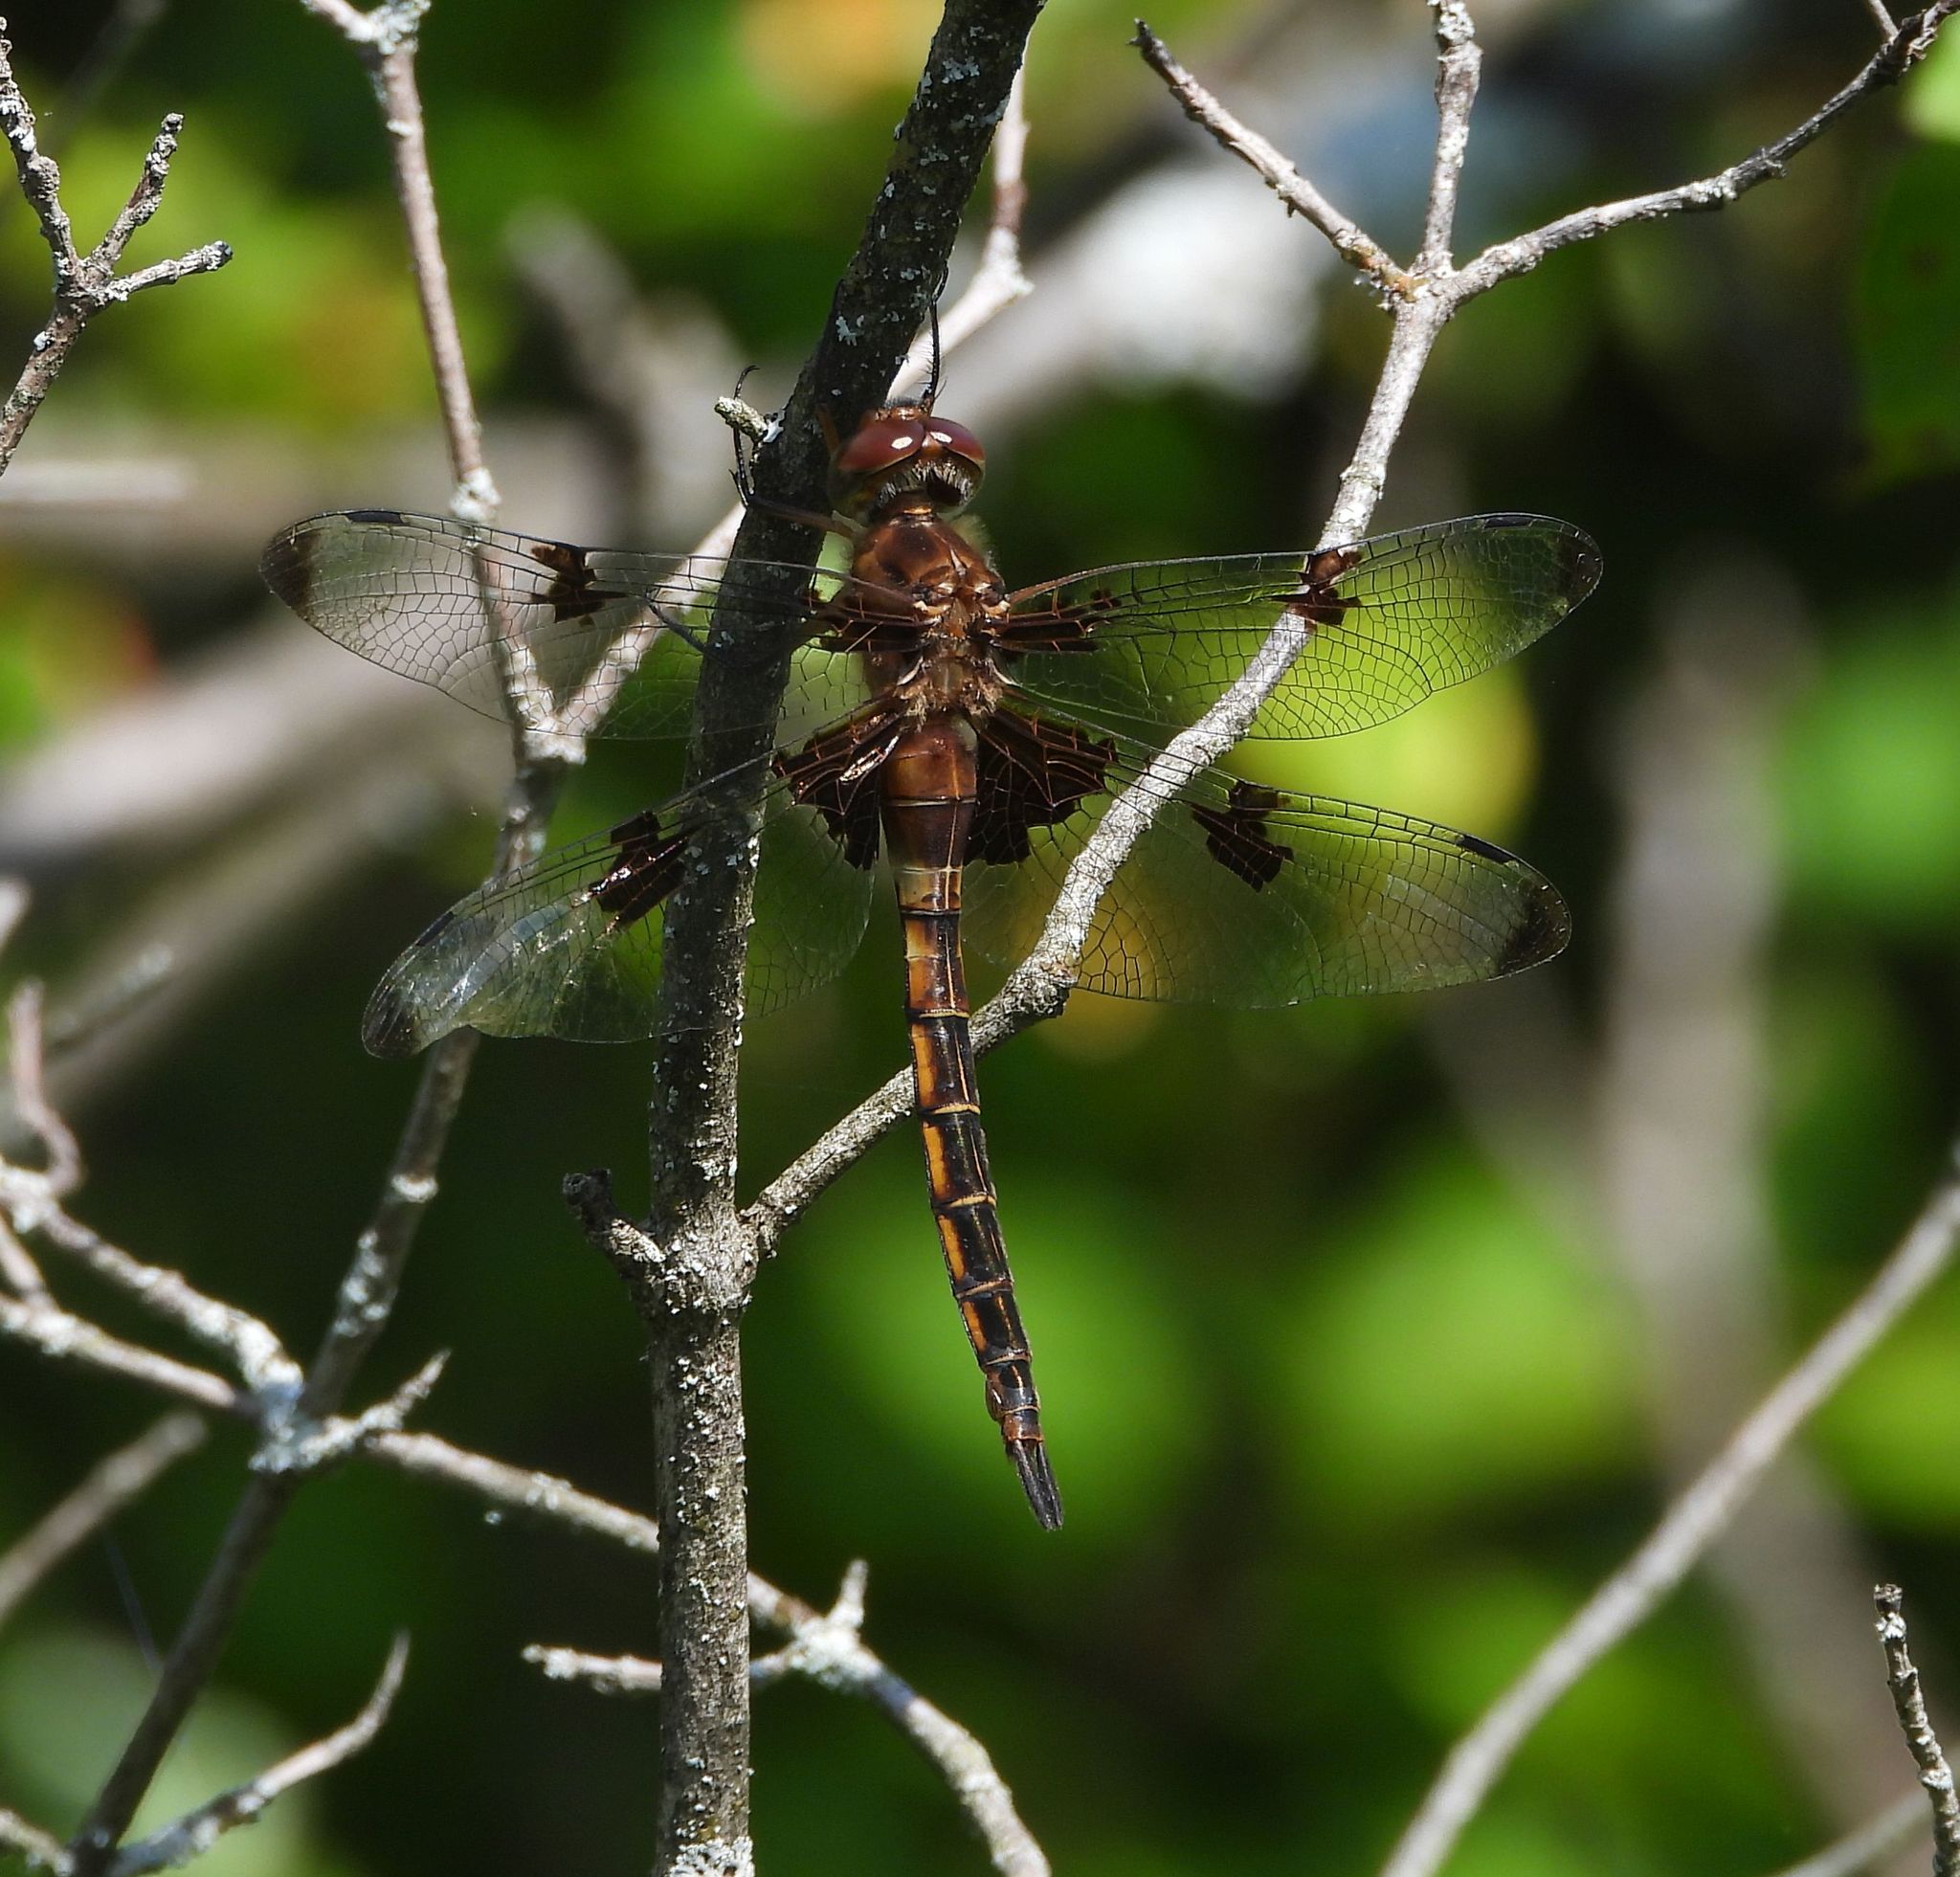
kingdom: Animalia
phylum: Arthropoda
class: Insecta
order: Odonata
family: Corduliidae
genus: Epitheca
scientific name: Epitheca princeps
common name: Prince baskettail
